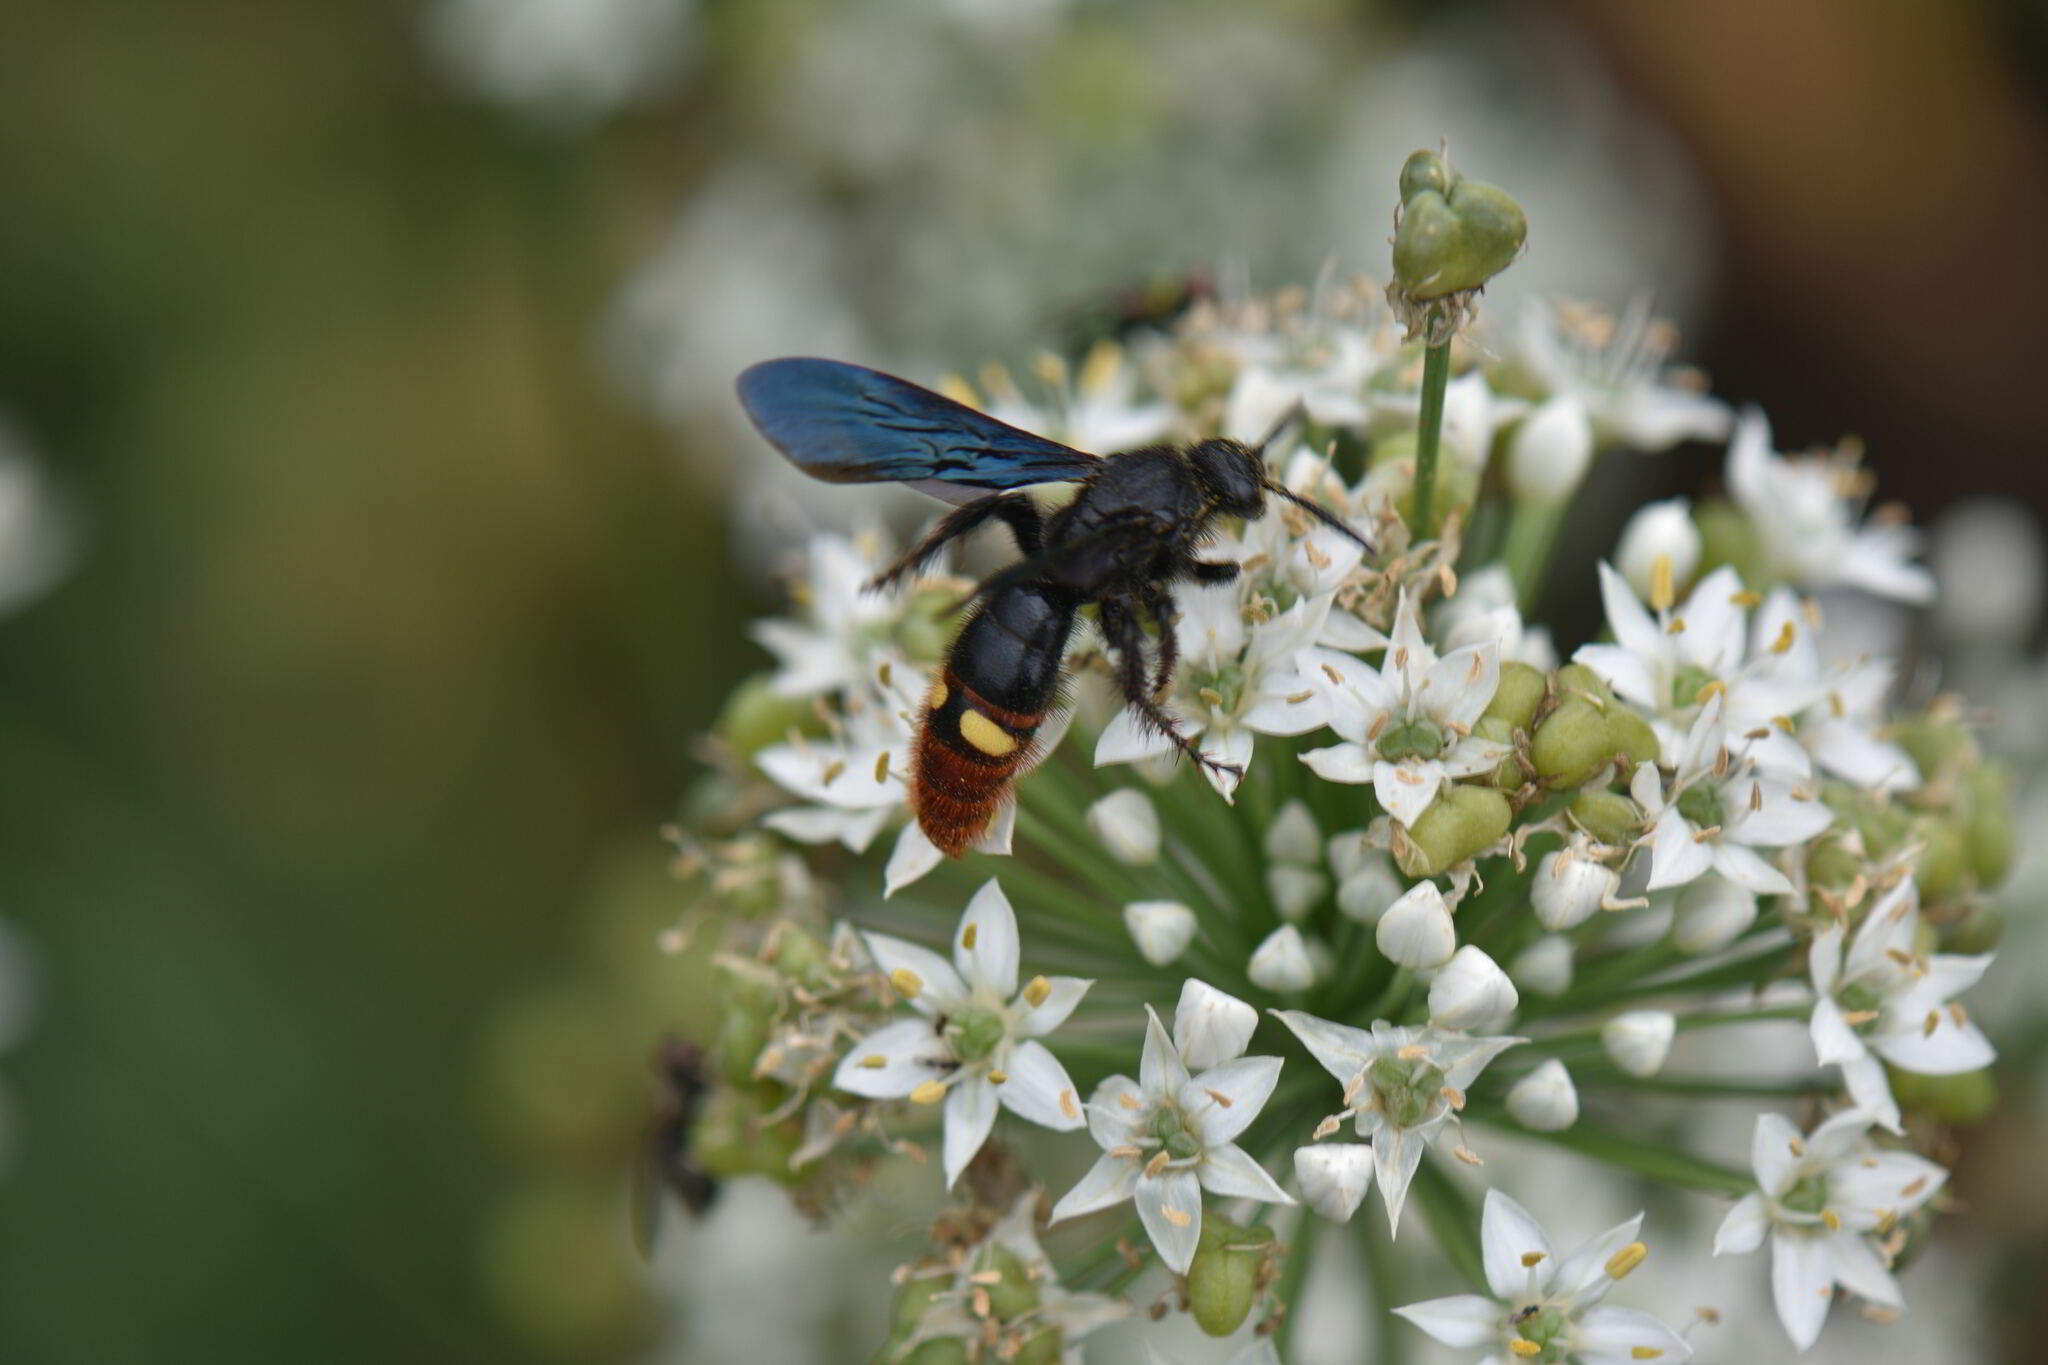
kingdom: Animalia
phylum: Arthropoda
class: Insecta
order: Hymenoptera
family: Scoliidae
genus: Scolia
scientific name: Scolia dubia
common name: Blue-winged scoliid wasp
